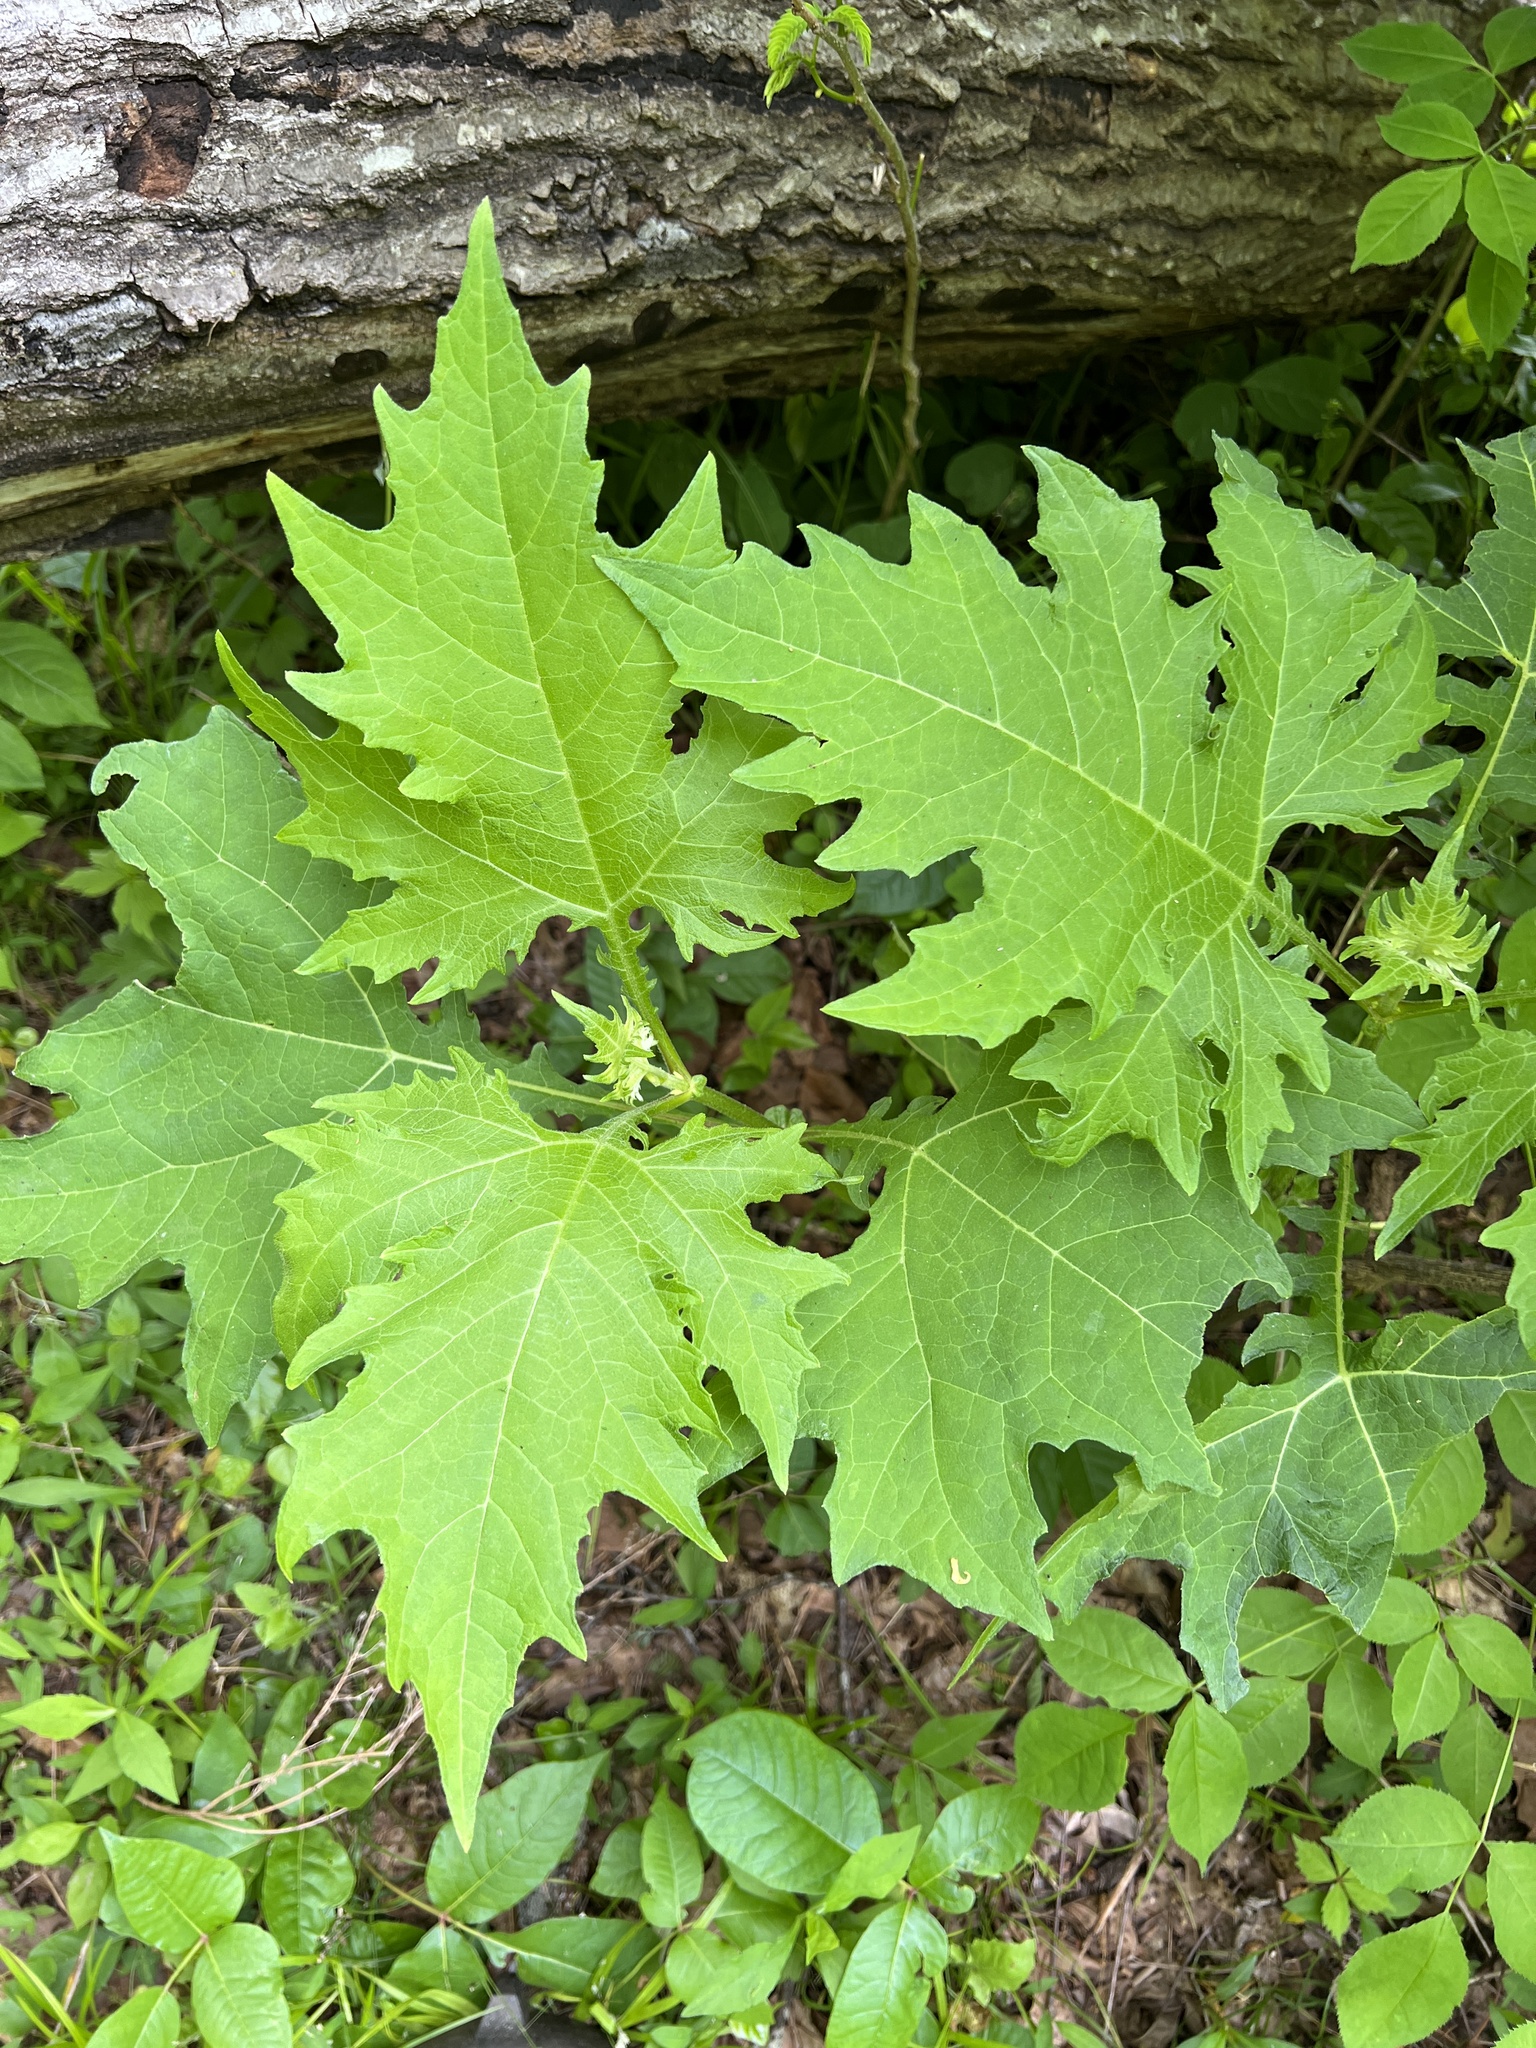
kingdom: Plantae
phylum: Tracheophyta
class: Magnoliopsida
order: Asterales
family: Asteraceae
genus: Smallanthus
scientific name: Smallanthus uvedalia
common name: Bear's-foot
